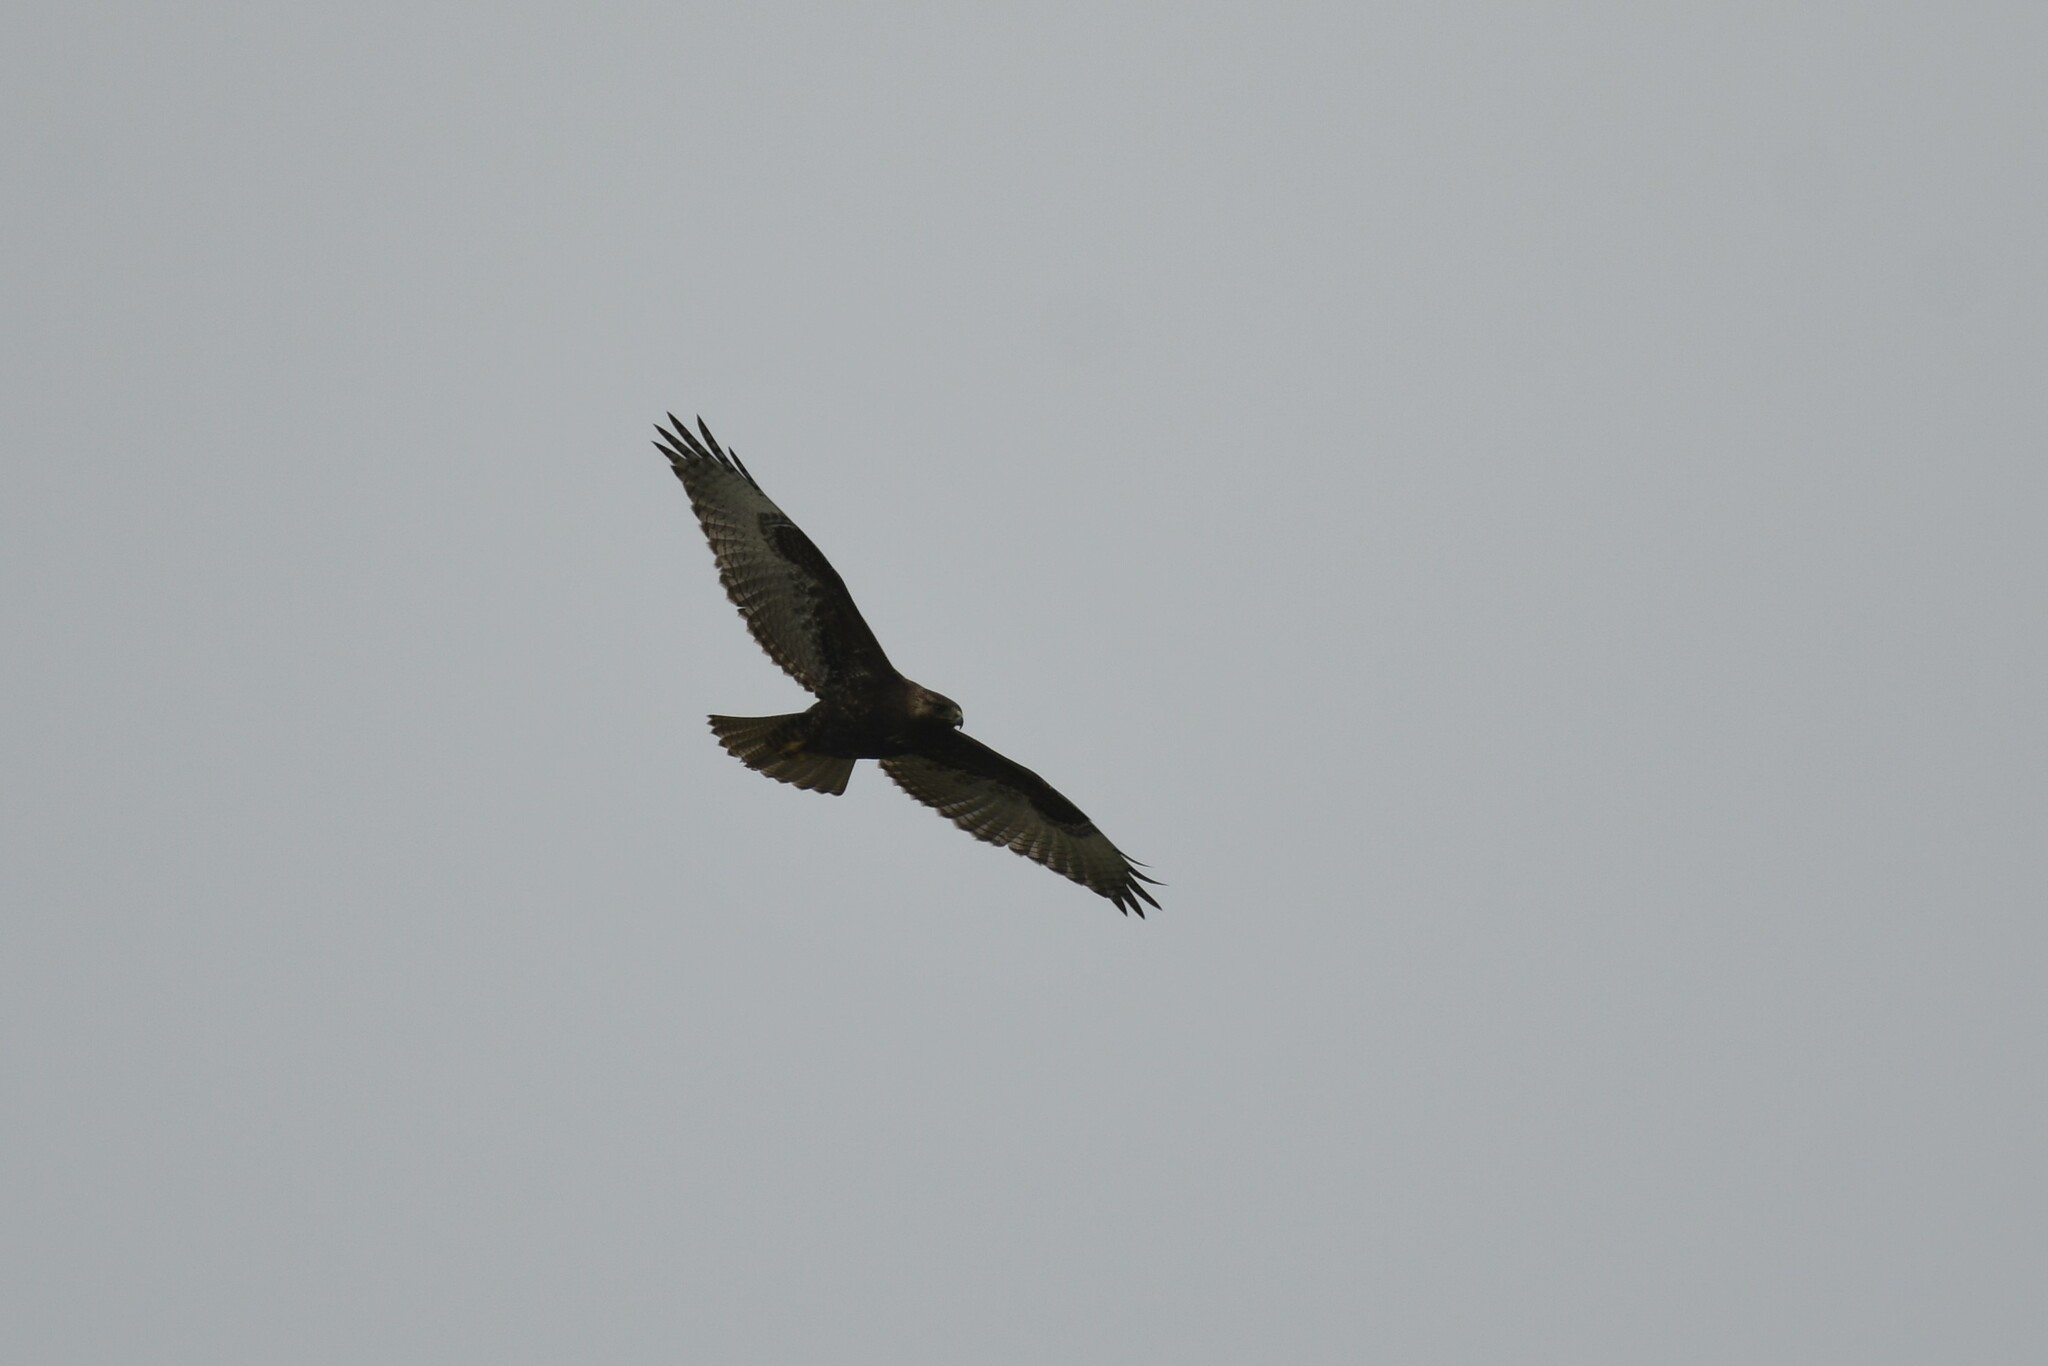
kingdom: Animalia
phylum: Chordata
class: Aves
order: Accipitriformes
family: Accipitridae
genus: Buteo
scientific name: Buteo polyosoma
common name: Variable hawk
